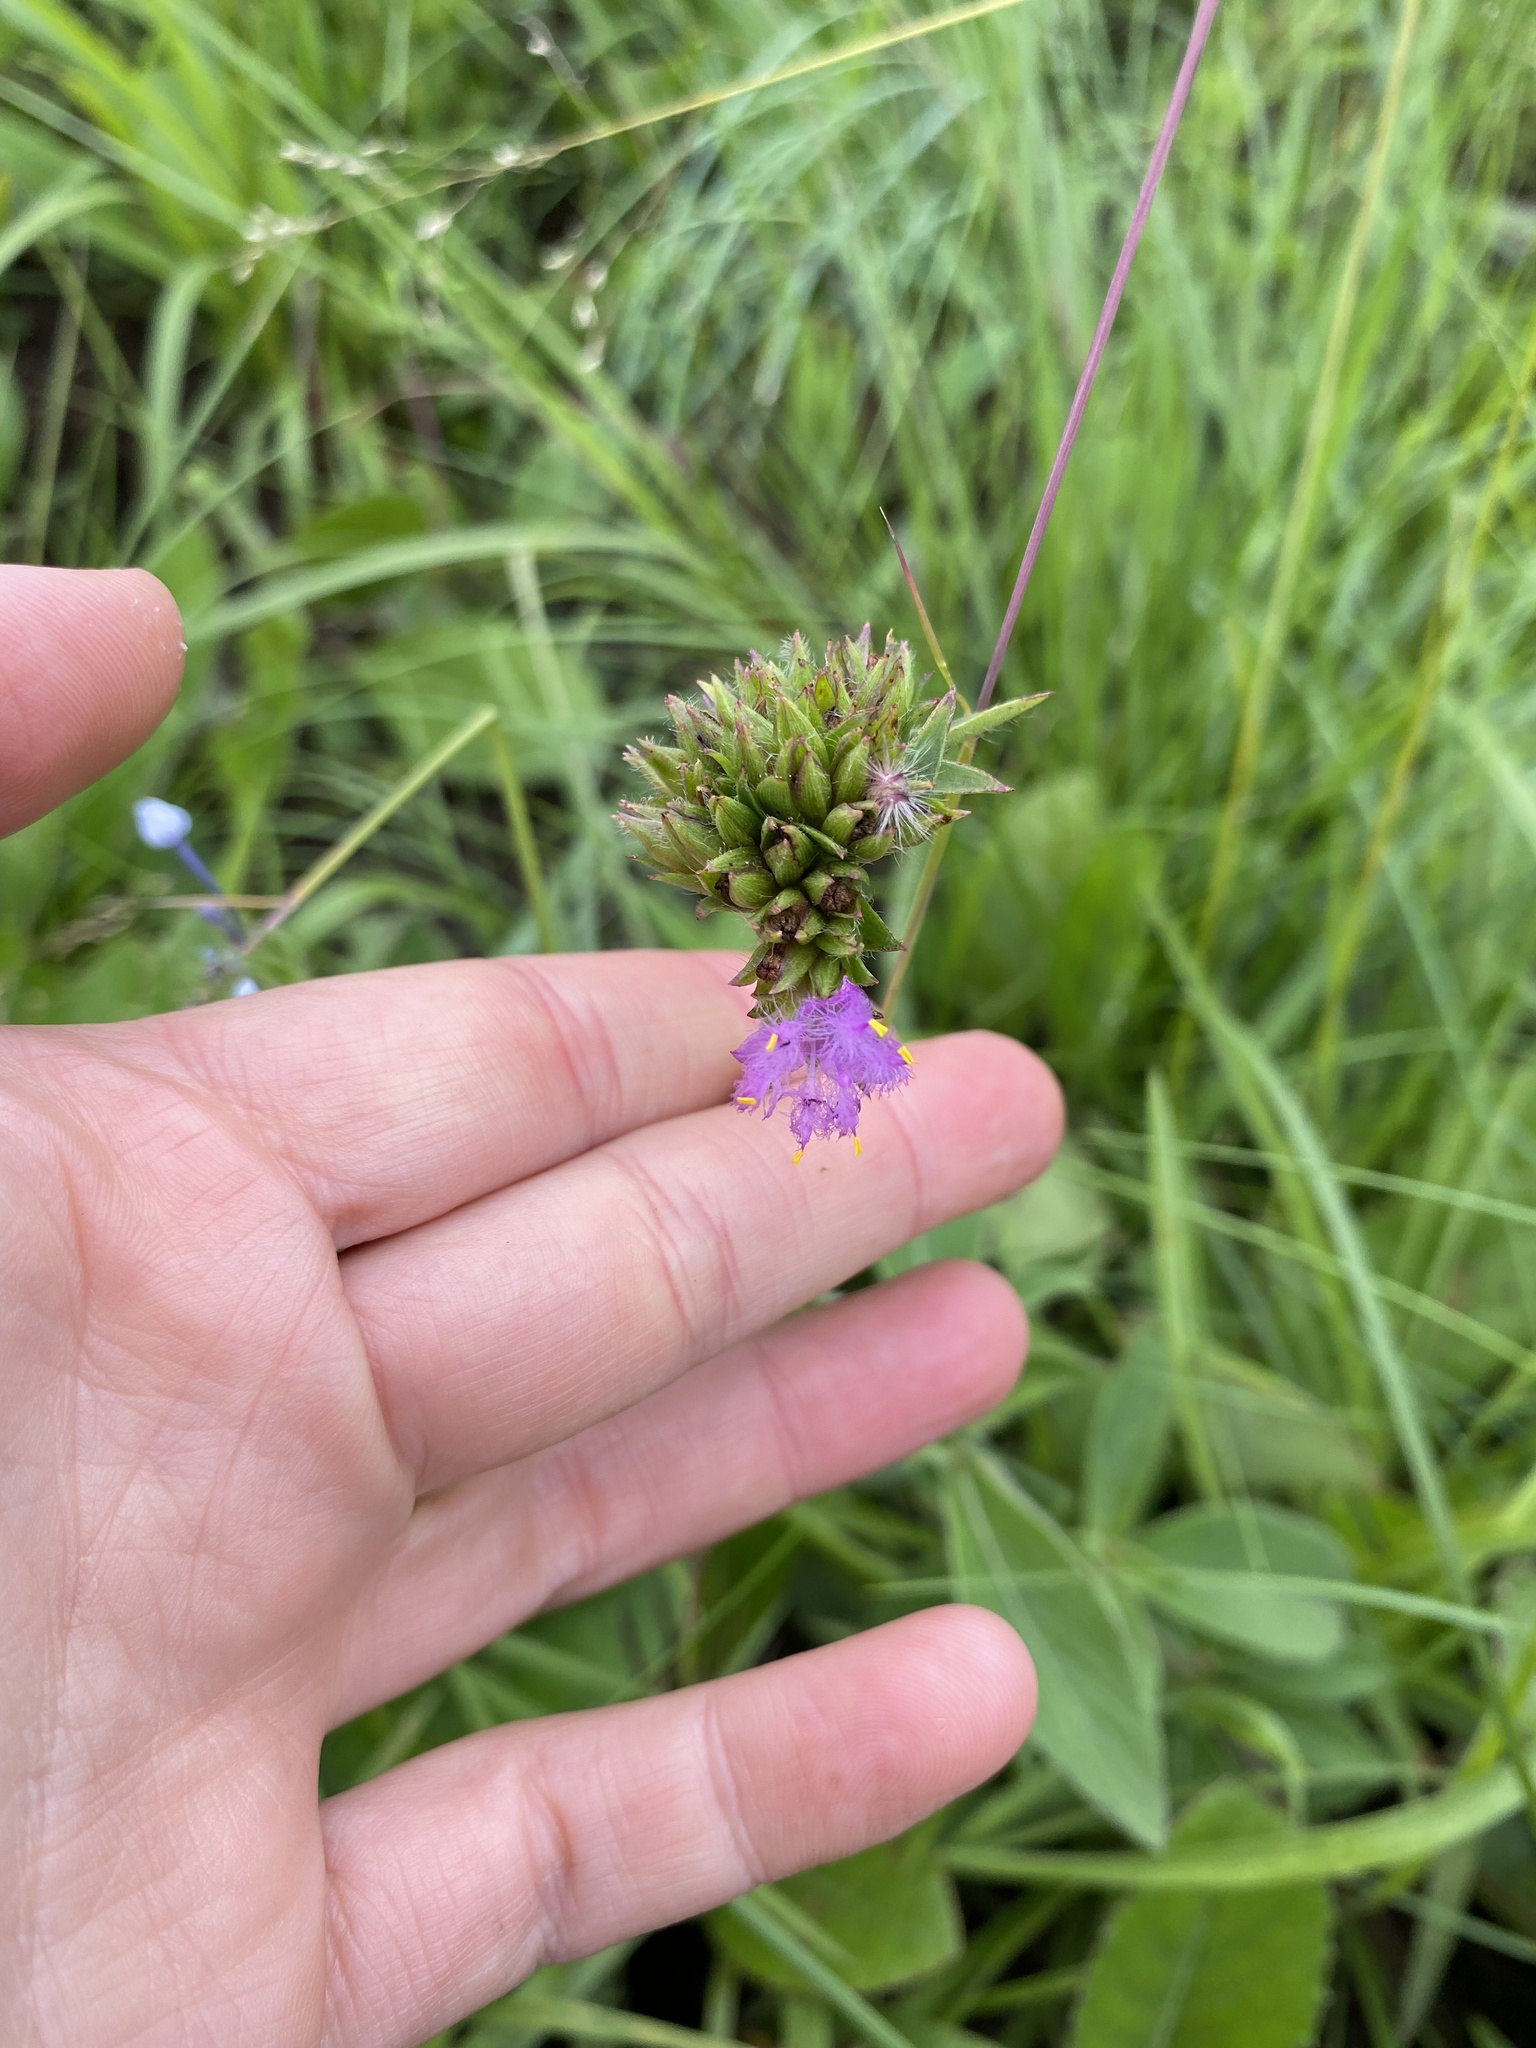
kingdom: Plantae
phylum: Tracheophyta
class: Liliopsida
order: Commelinales
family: Commelinaceae
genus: Cyanotis
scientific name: Cyanotis speciosa
